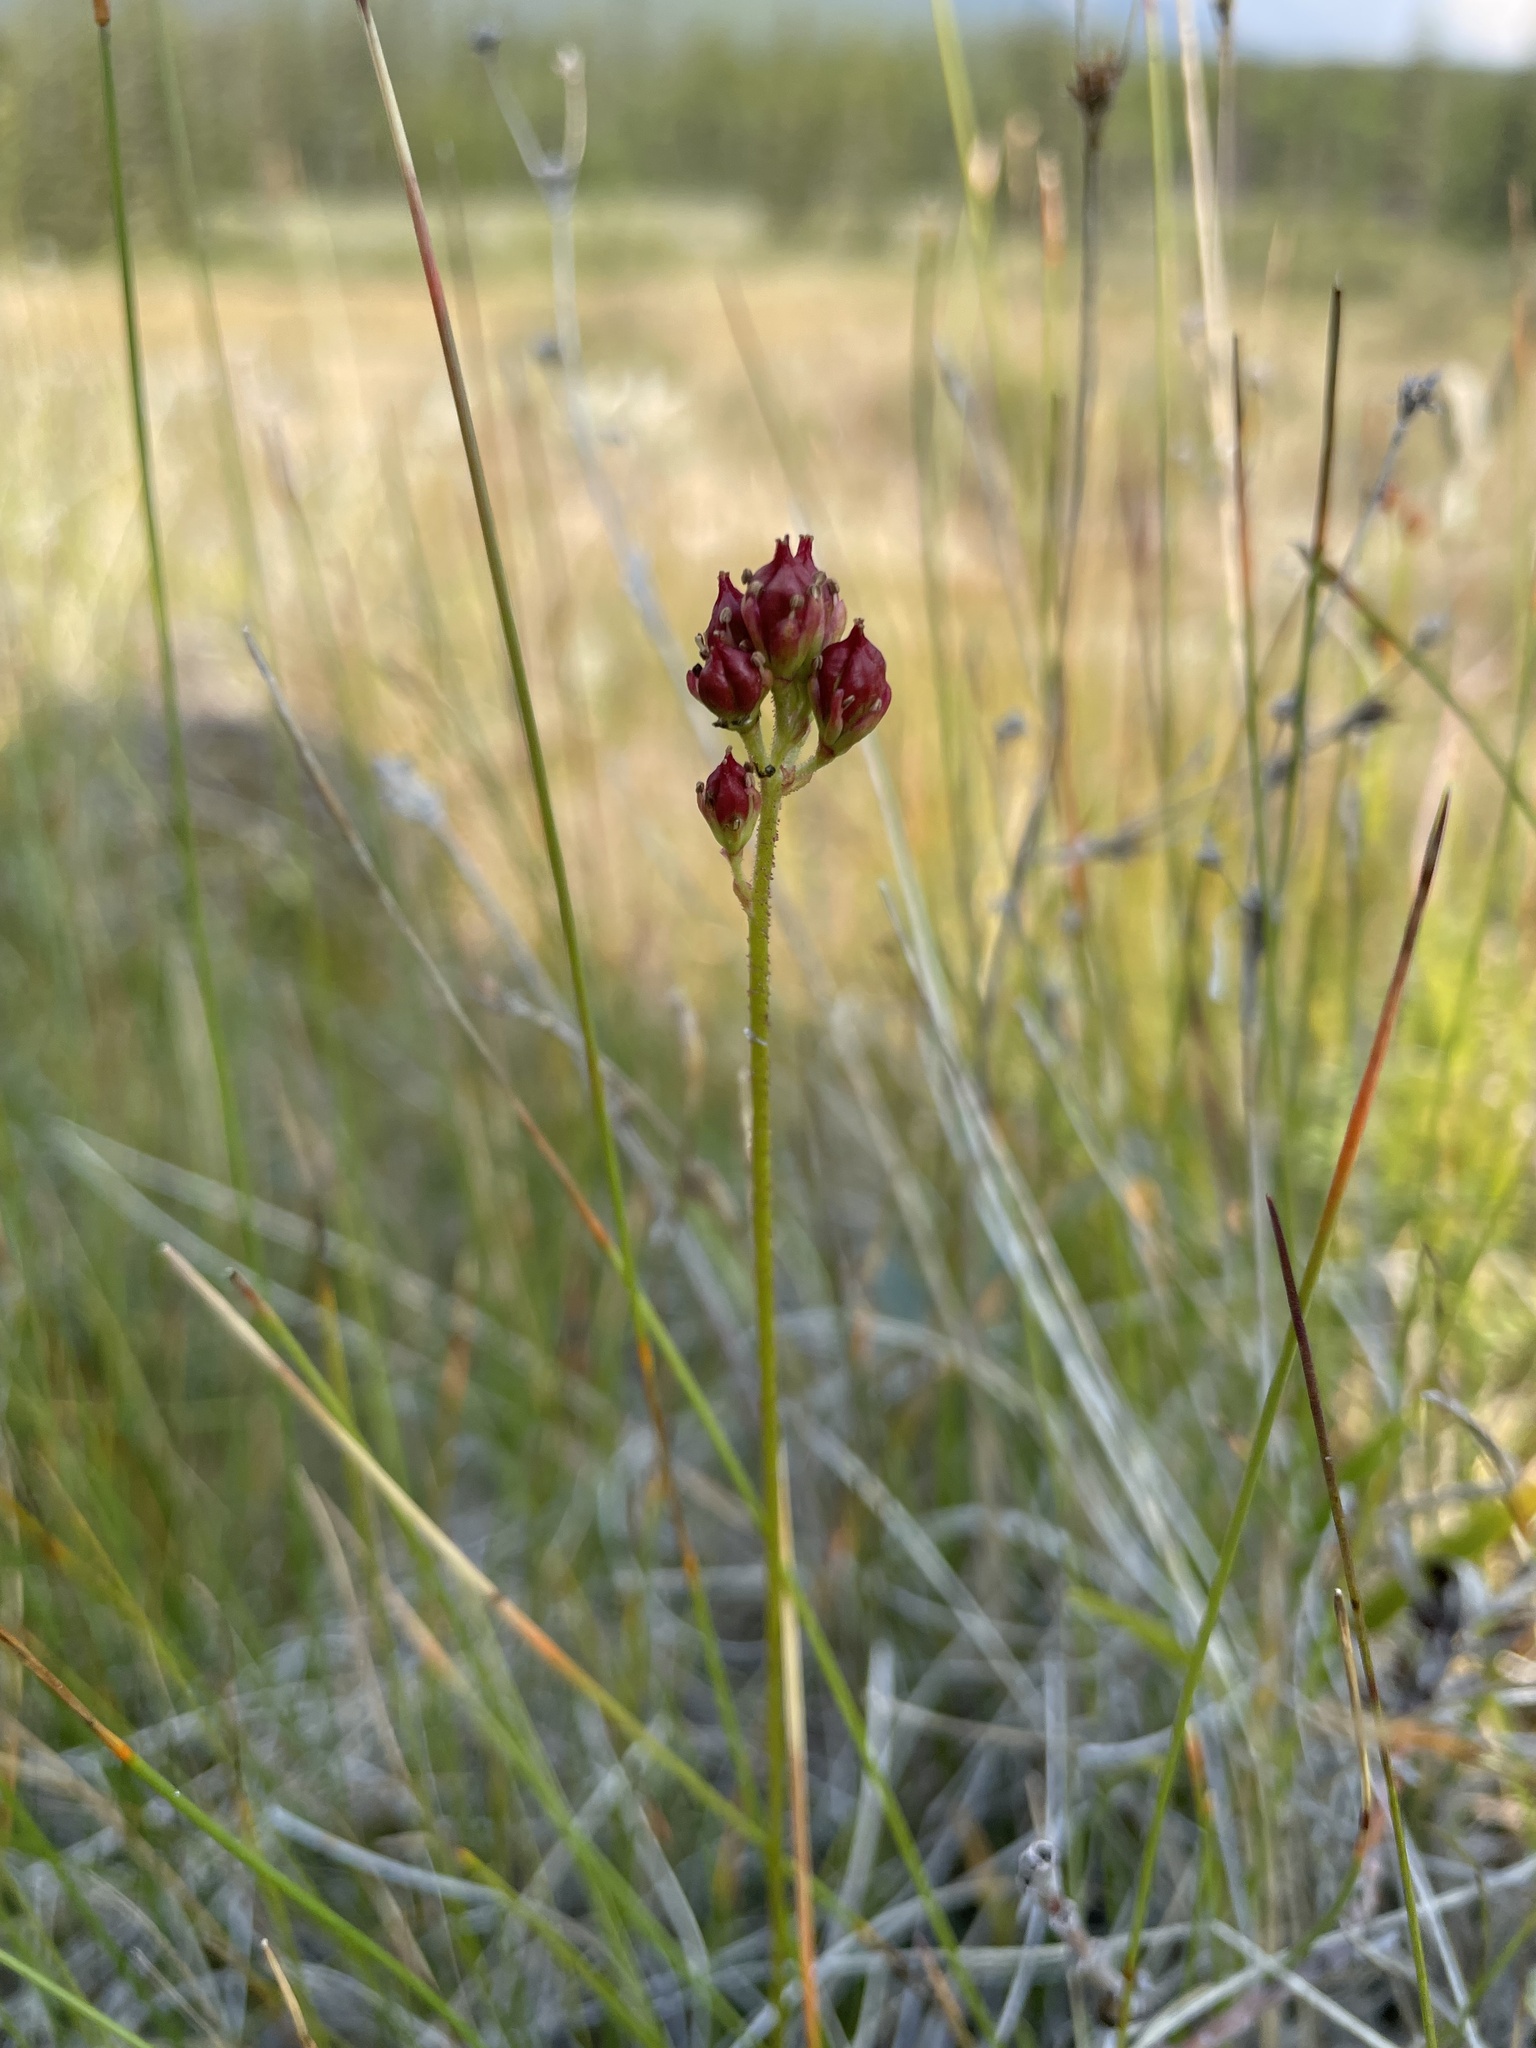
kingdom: Plantae
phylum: Tracheophyta
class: Liliopsida
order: Alismatales
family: Tofieldiaceae
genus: Triantha
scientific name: Triantha glutinosa
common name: Glutinous tofieldia
